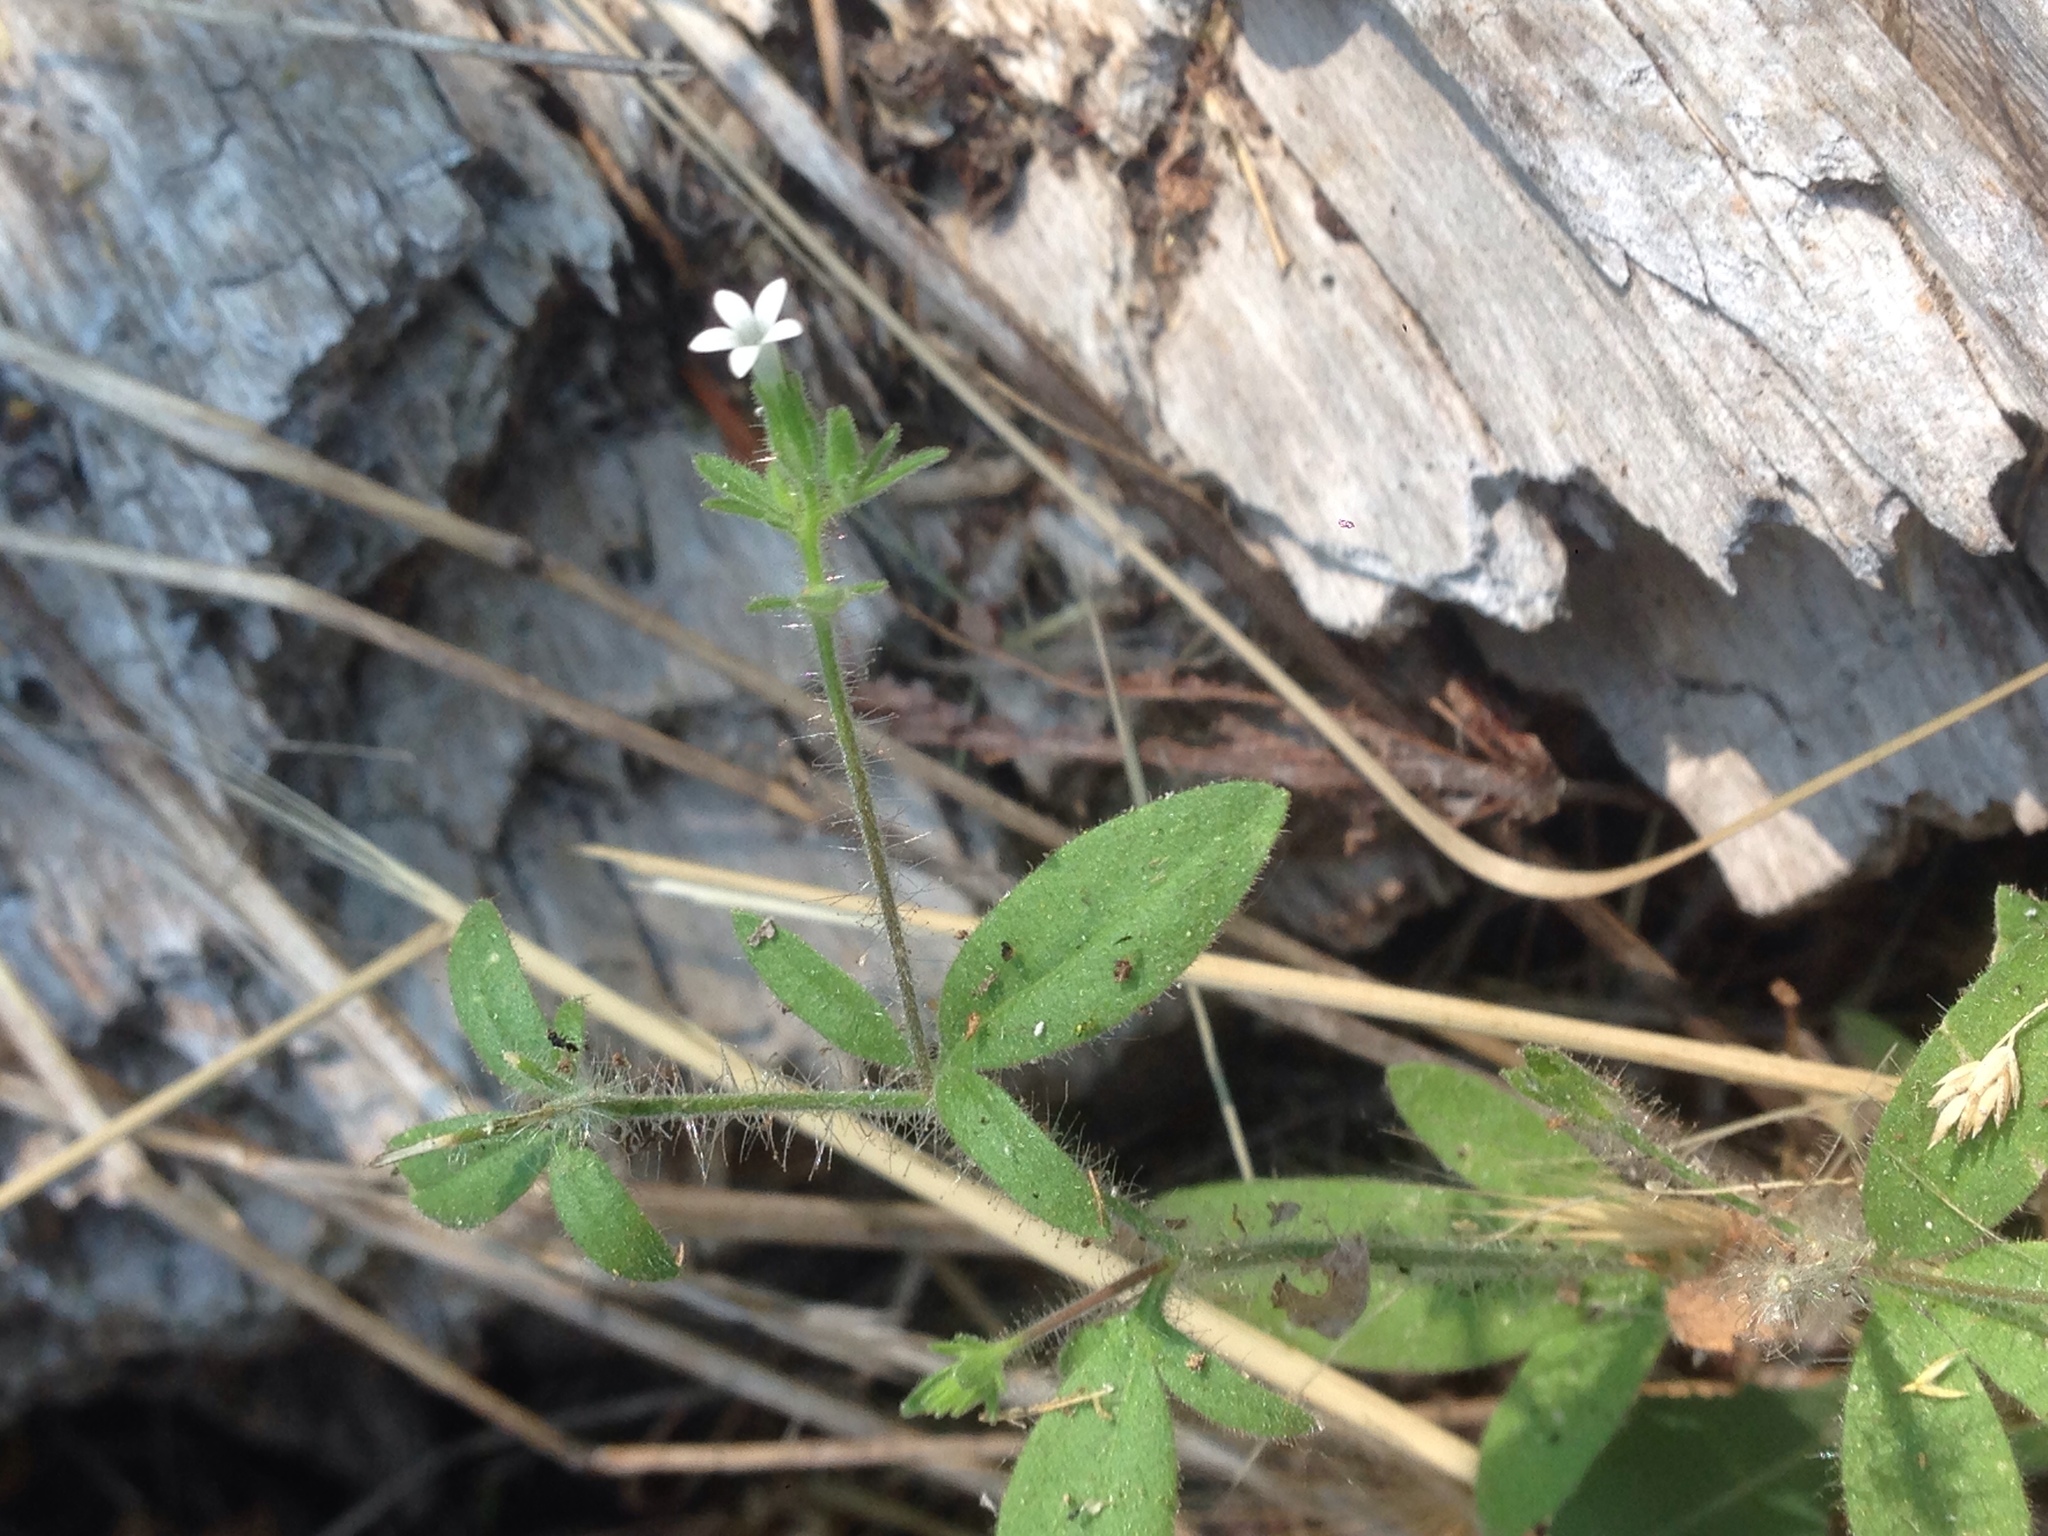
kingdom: Plantae
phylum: Tracheophyta
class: Magnoliopsida
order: Ericales
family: Polemoniaceae
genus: Allophyllum
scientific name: Allophyllum integrifolium
